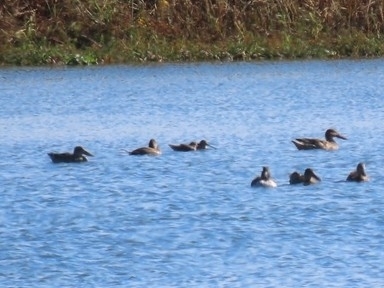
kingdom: Animalia
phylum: Chordata
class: Aves
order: Charadriiformes
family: Scolopacidae
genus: Limnodromus
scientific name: Limnodromus scolopaceus
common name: Long-billed dowitcher
